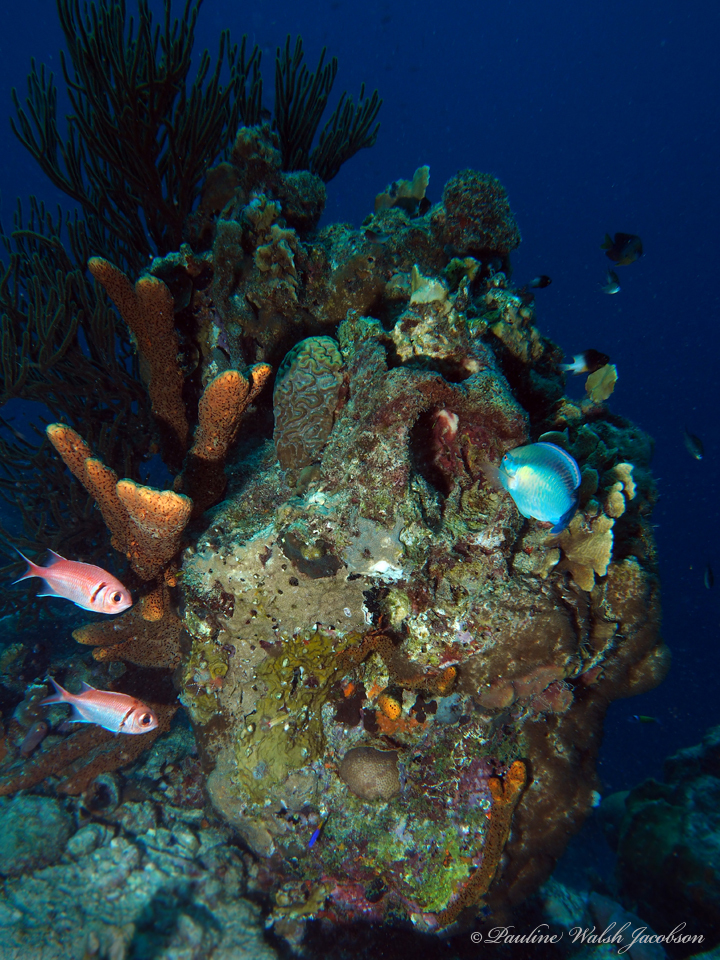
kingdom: Animalia
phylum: Chordata
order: Beryciformes
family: Holocentridae
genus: Myripristis
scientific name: Myripristis jacobus
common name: Blackbar soldierfish
